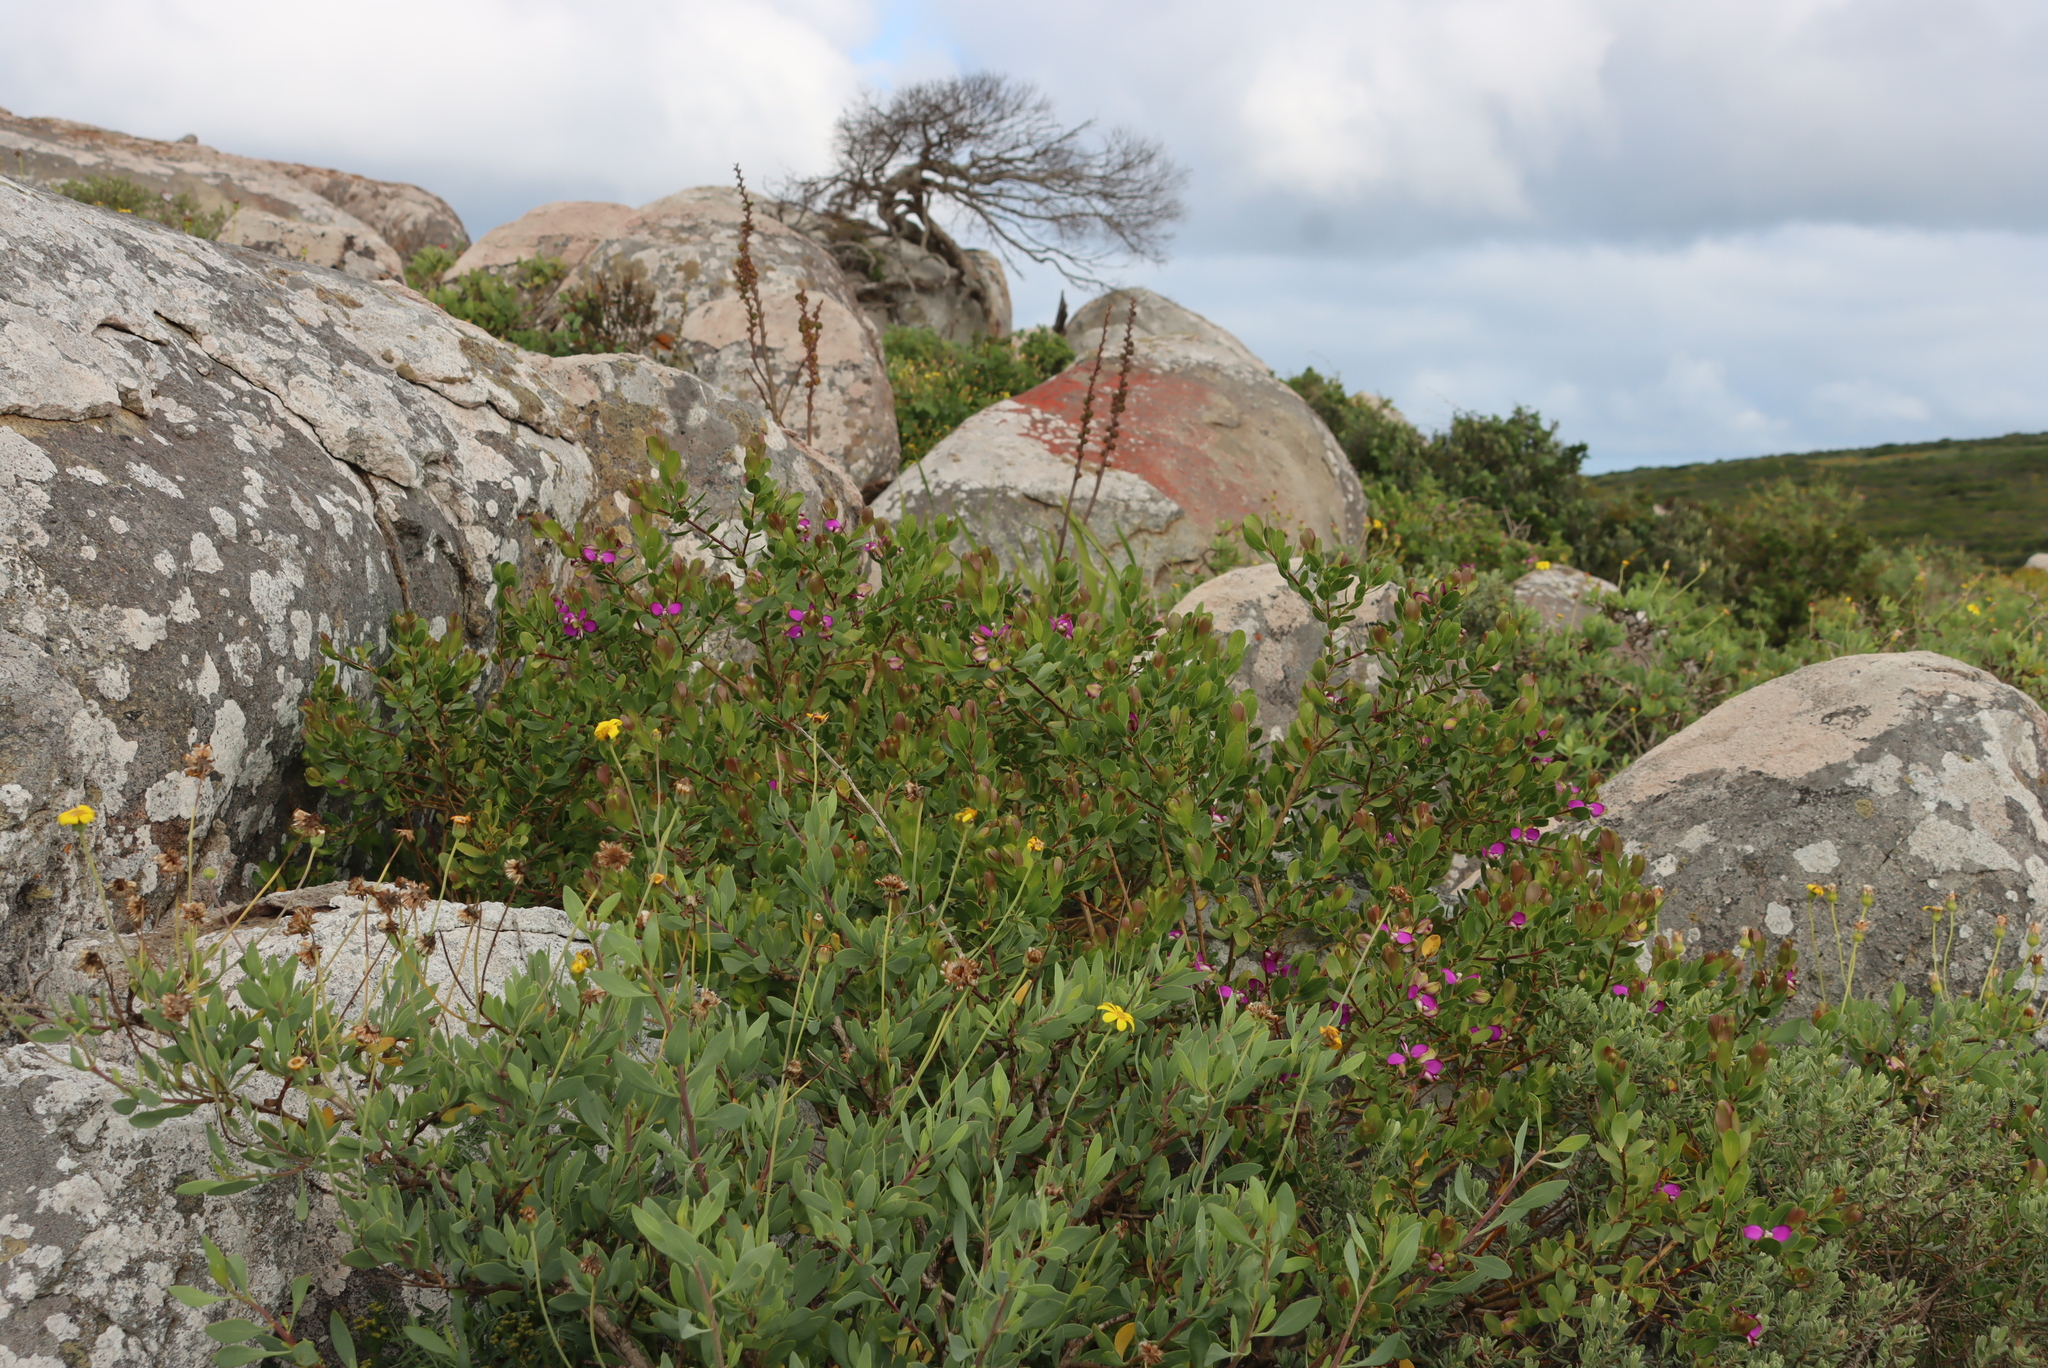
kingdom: Plantae
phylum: Tracheophyta
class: Magnoliopsida
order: Fabales
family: Polygalaceae
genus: Polygala
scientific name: Polygala myrtifolia
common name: Myrtle-leaf milkwort
